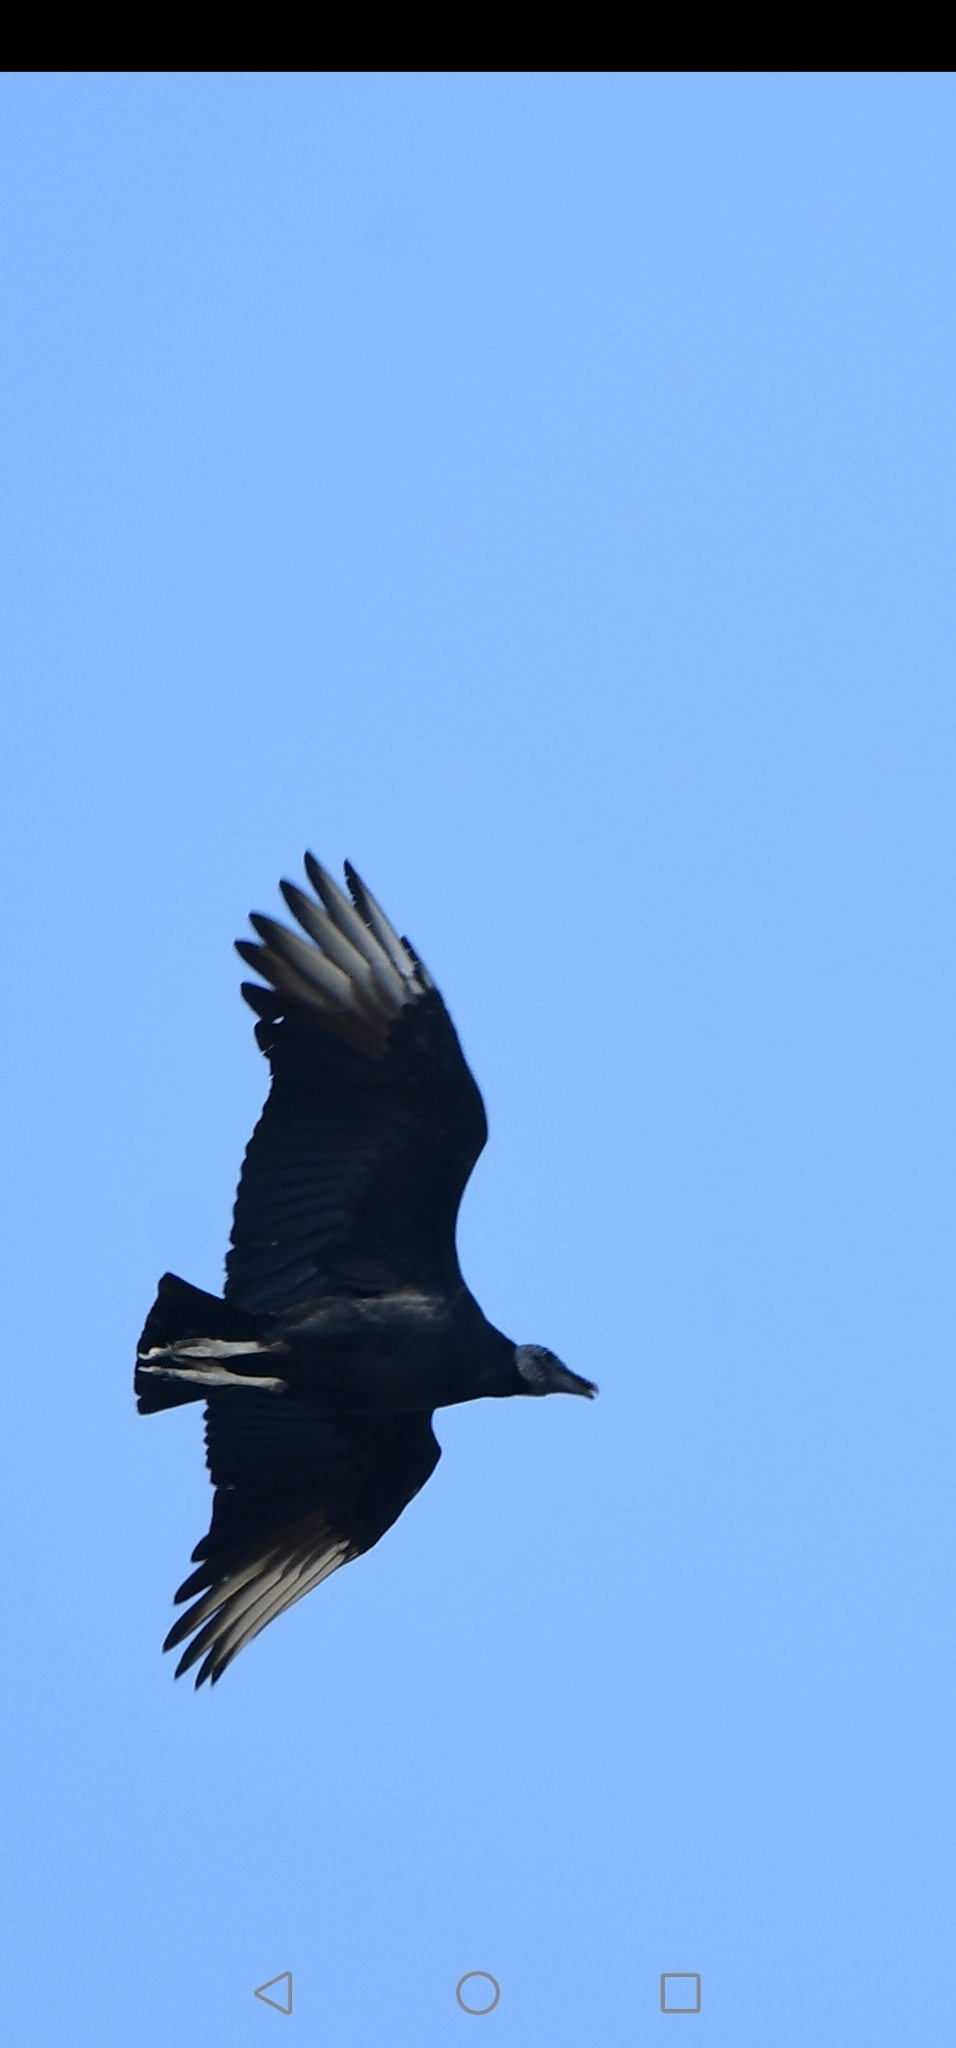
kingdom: Animalia
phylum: Chordata
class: Aves
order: Accipitriformes
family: Cathartidae
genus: Coragyps
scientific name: Coragyps atratus
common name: Black vulture
